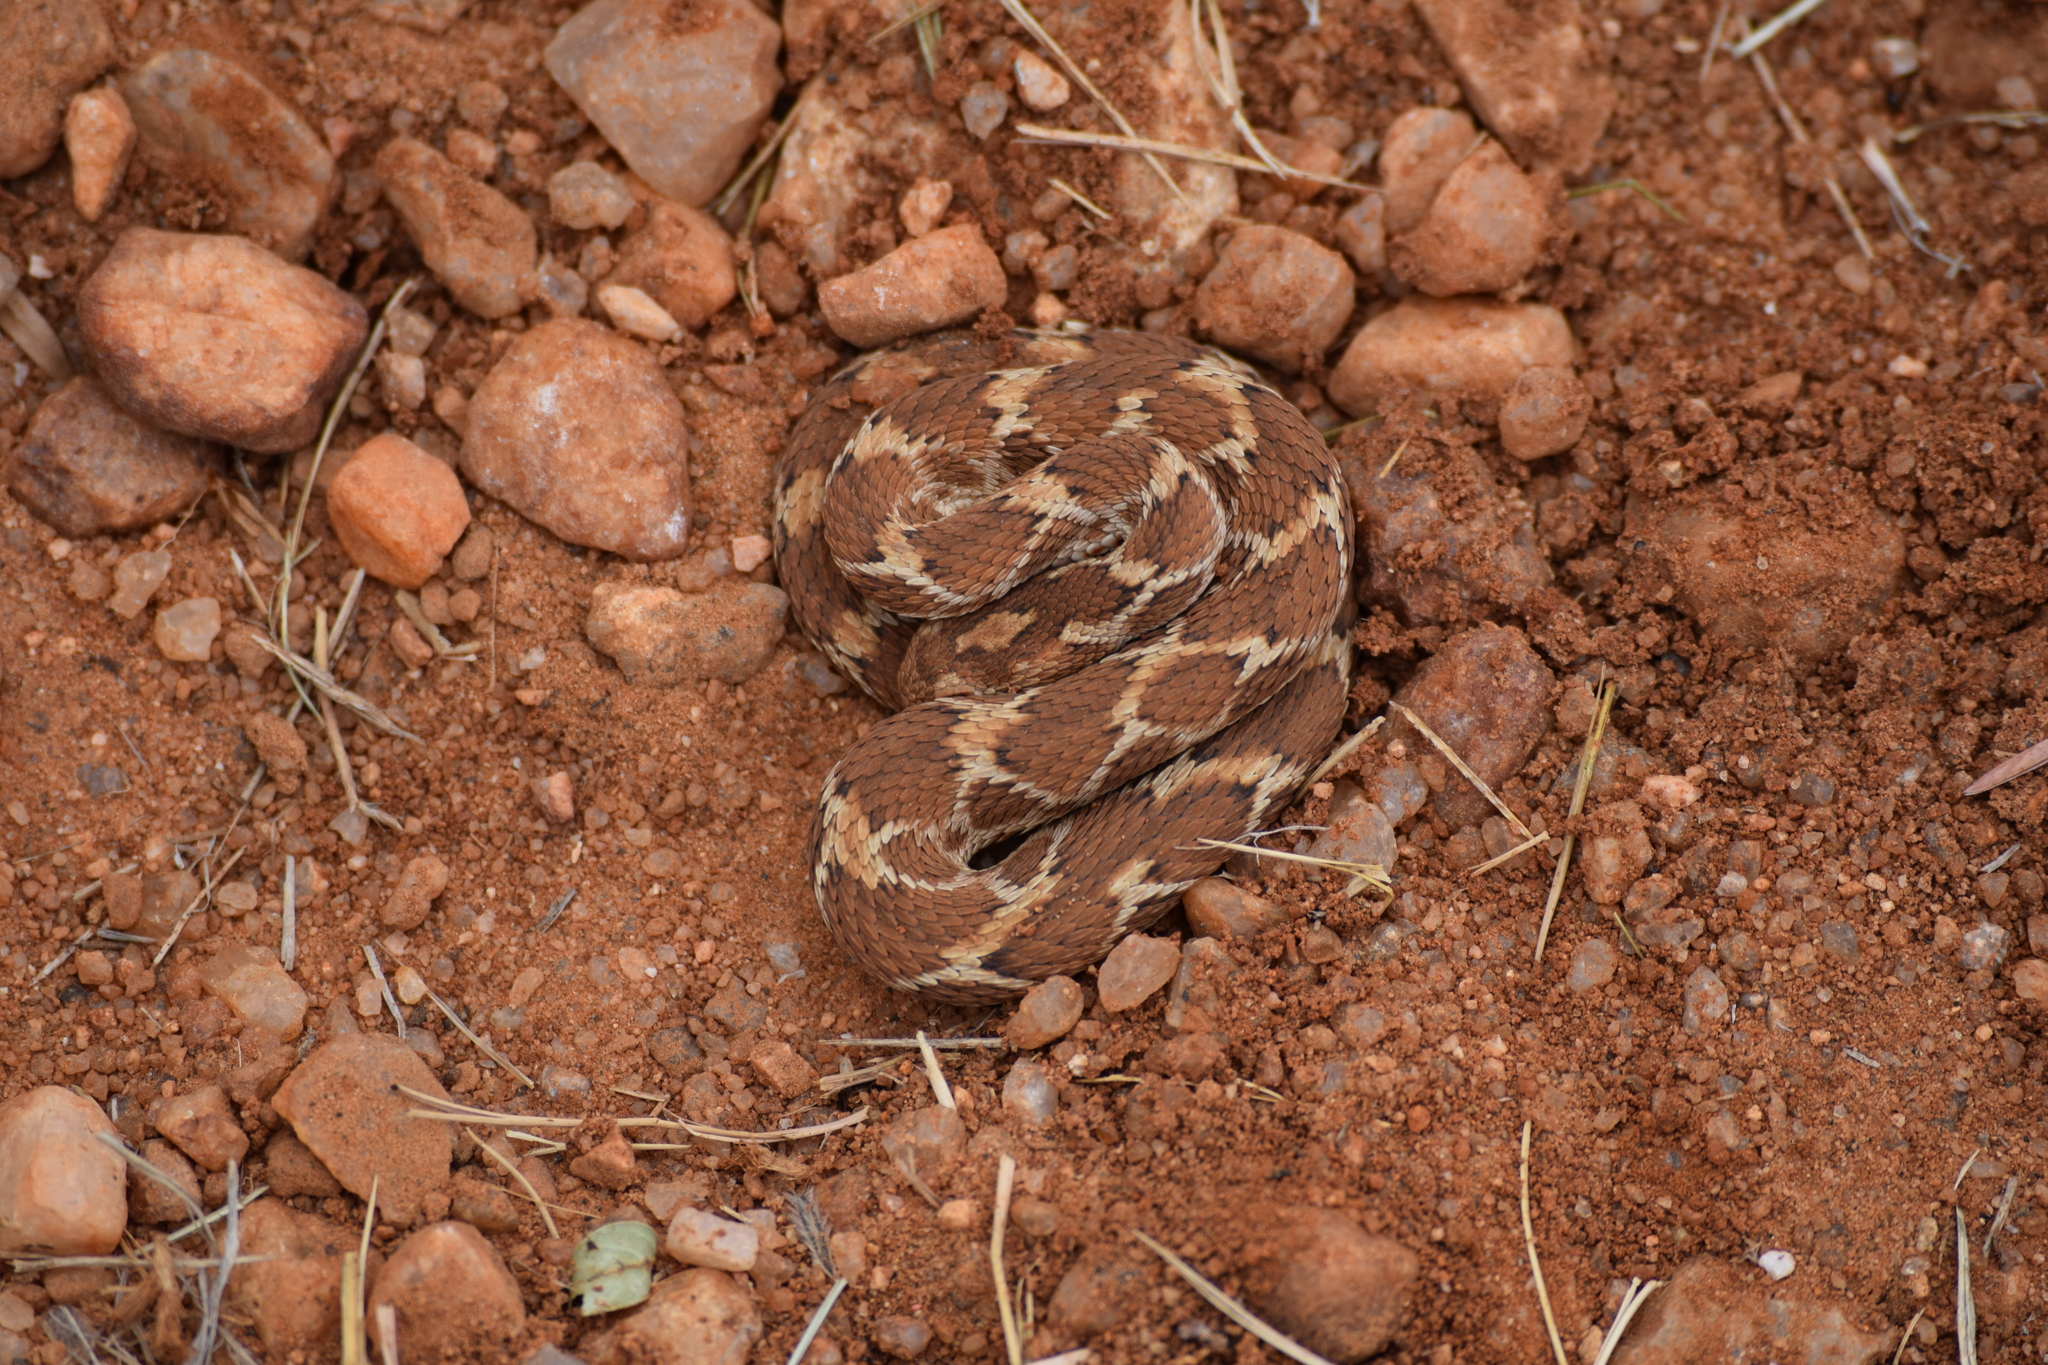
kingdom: Animalia
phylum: Chordata
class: Squamata
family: Viperidae
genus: Echis
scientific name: Echis carinatus
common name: Saw-scaled viper
